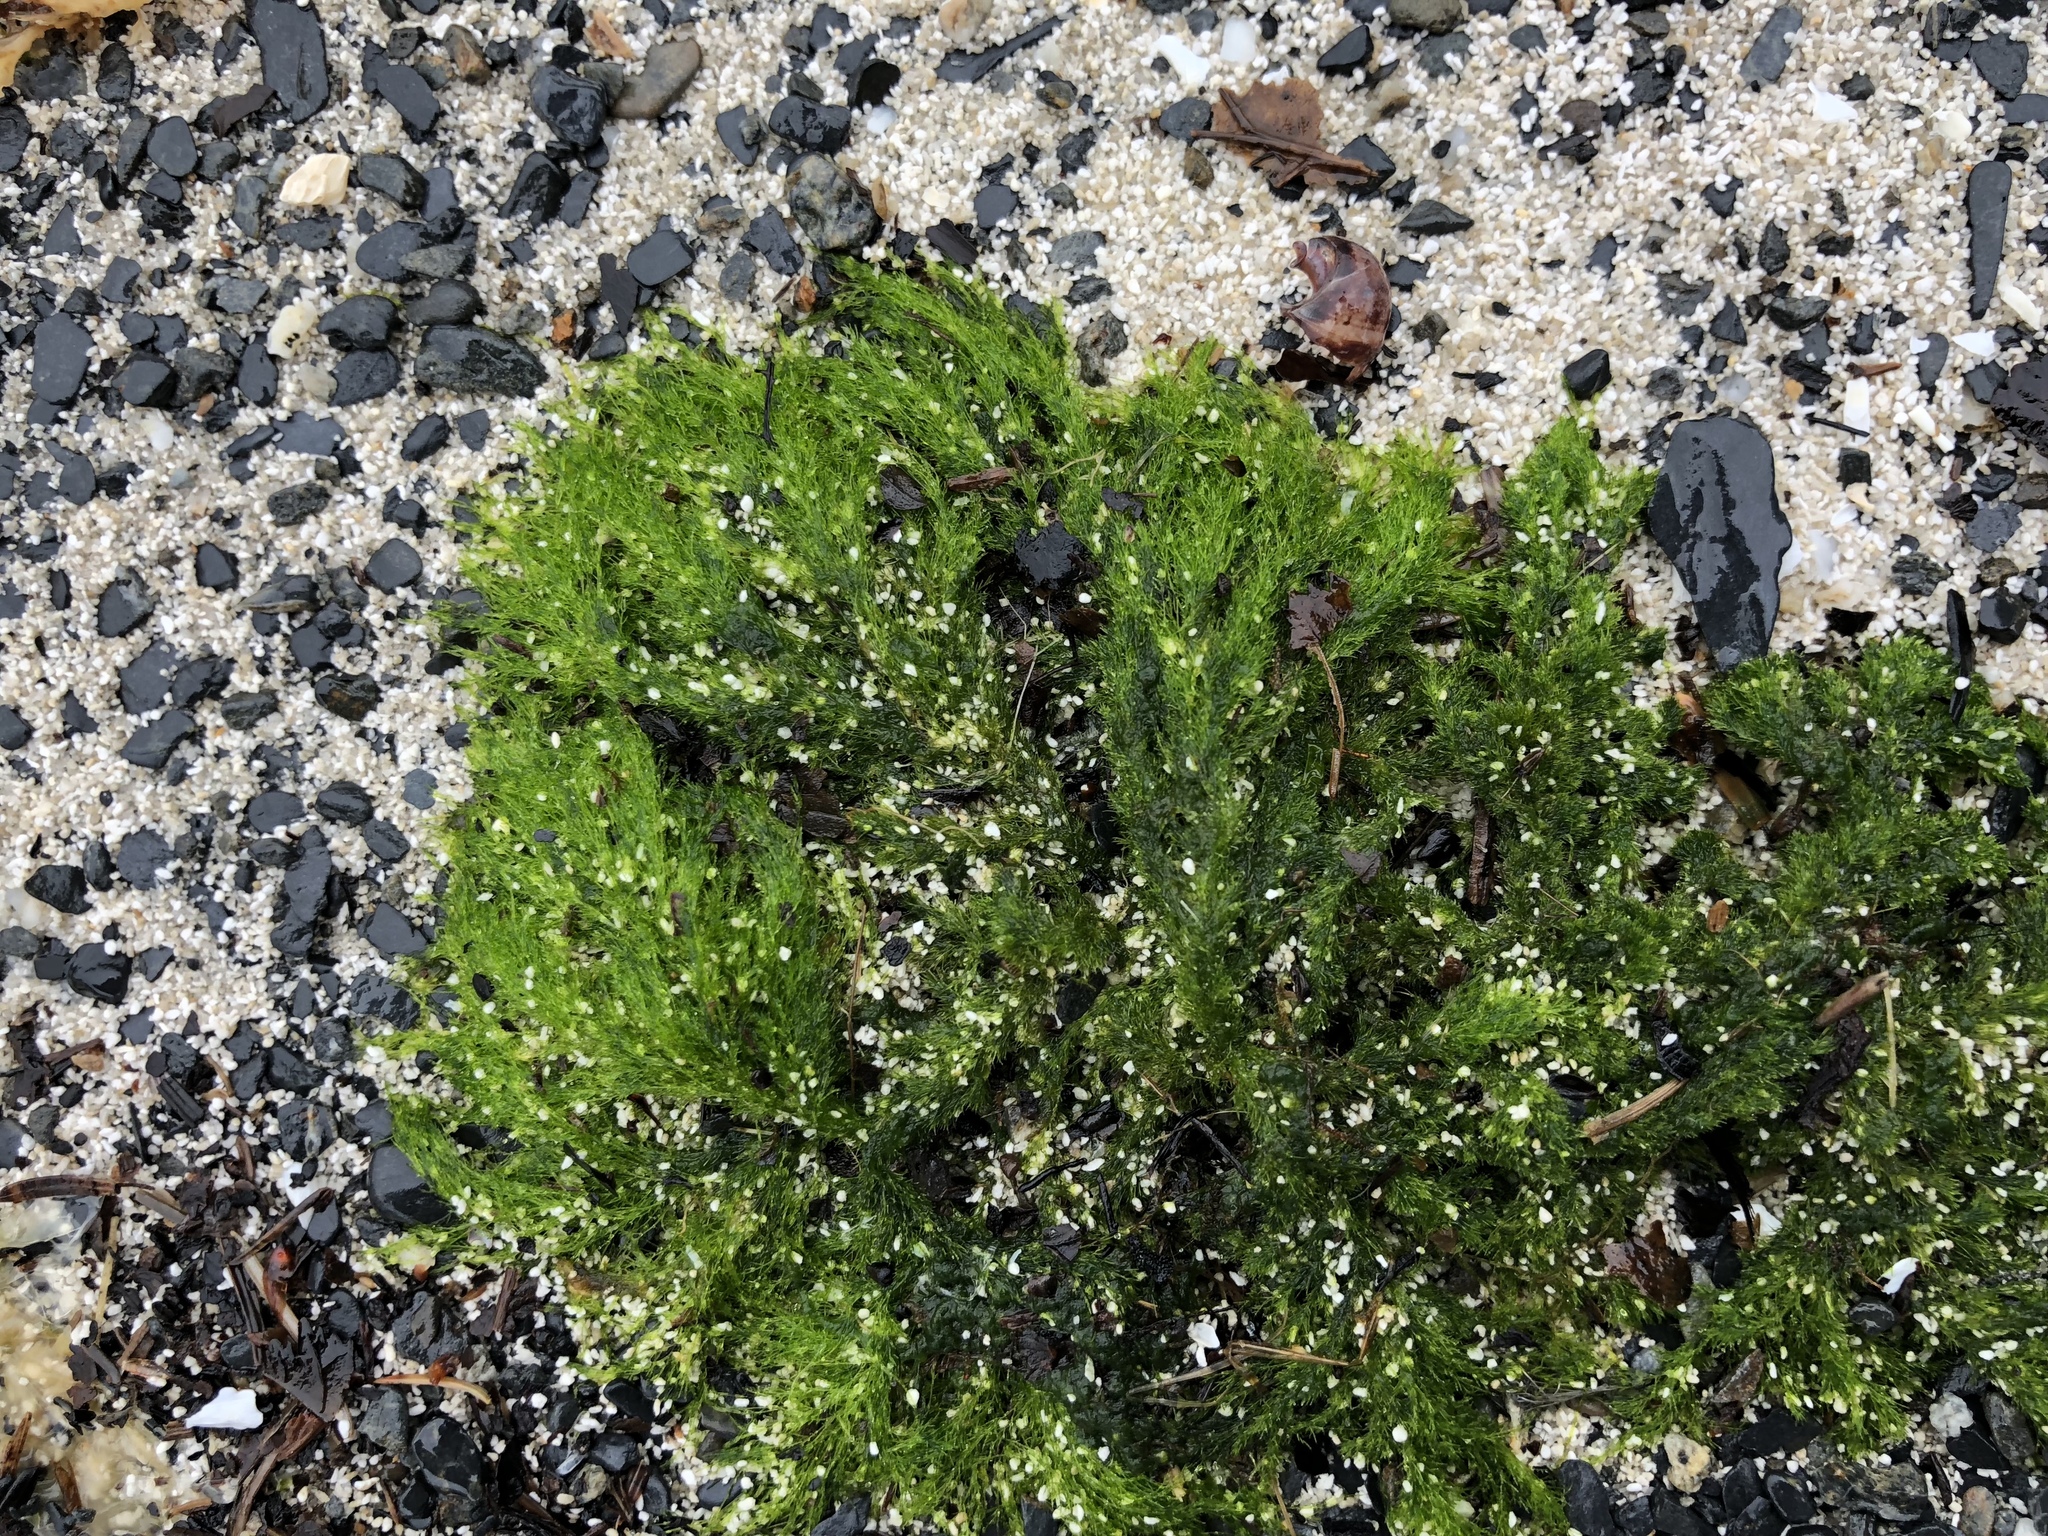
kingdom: Plantae
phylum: Chlorophyta
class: Ulvophyceae
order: Ulotrichales
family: Ulotrichaceae
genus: Acrosiphonia
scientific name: Acrosiphonia
